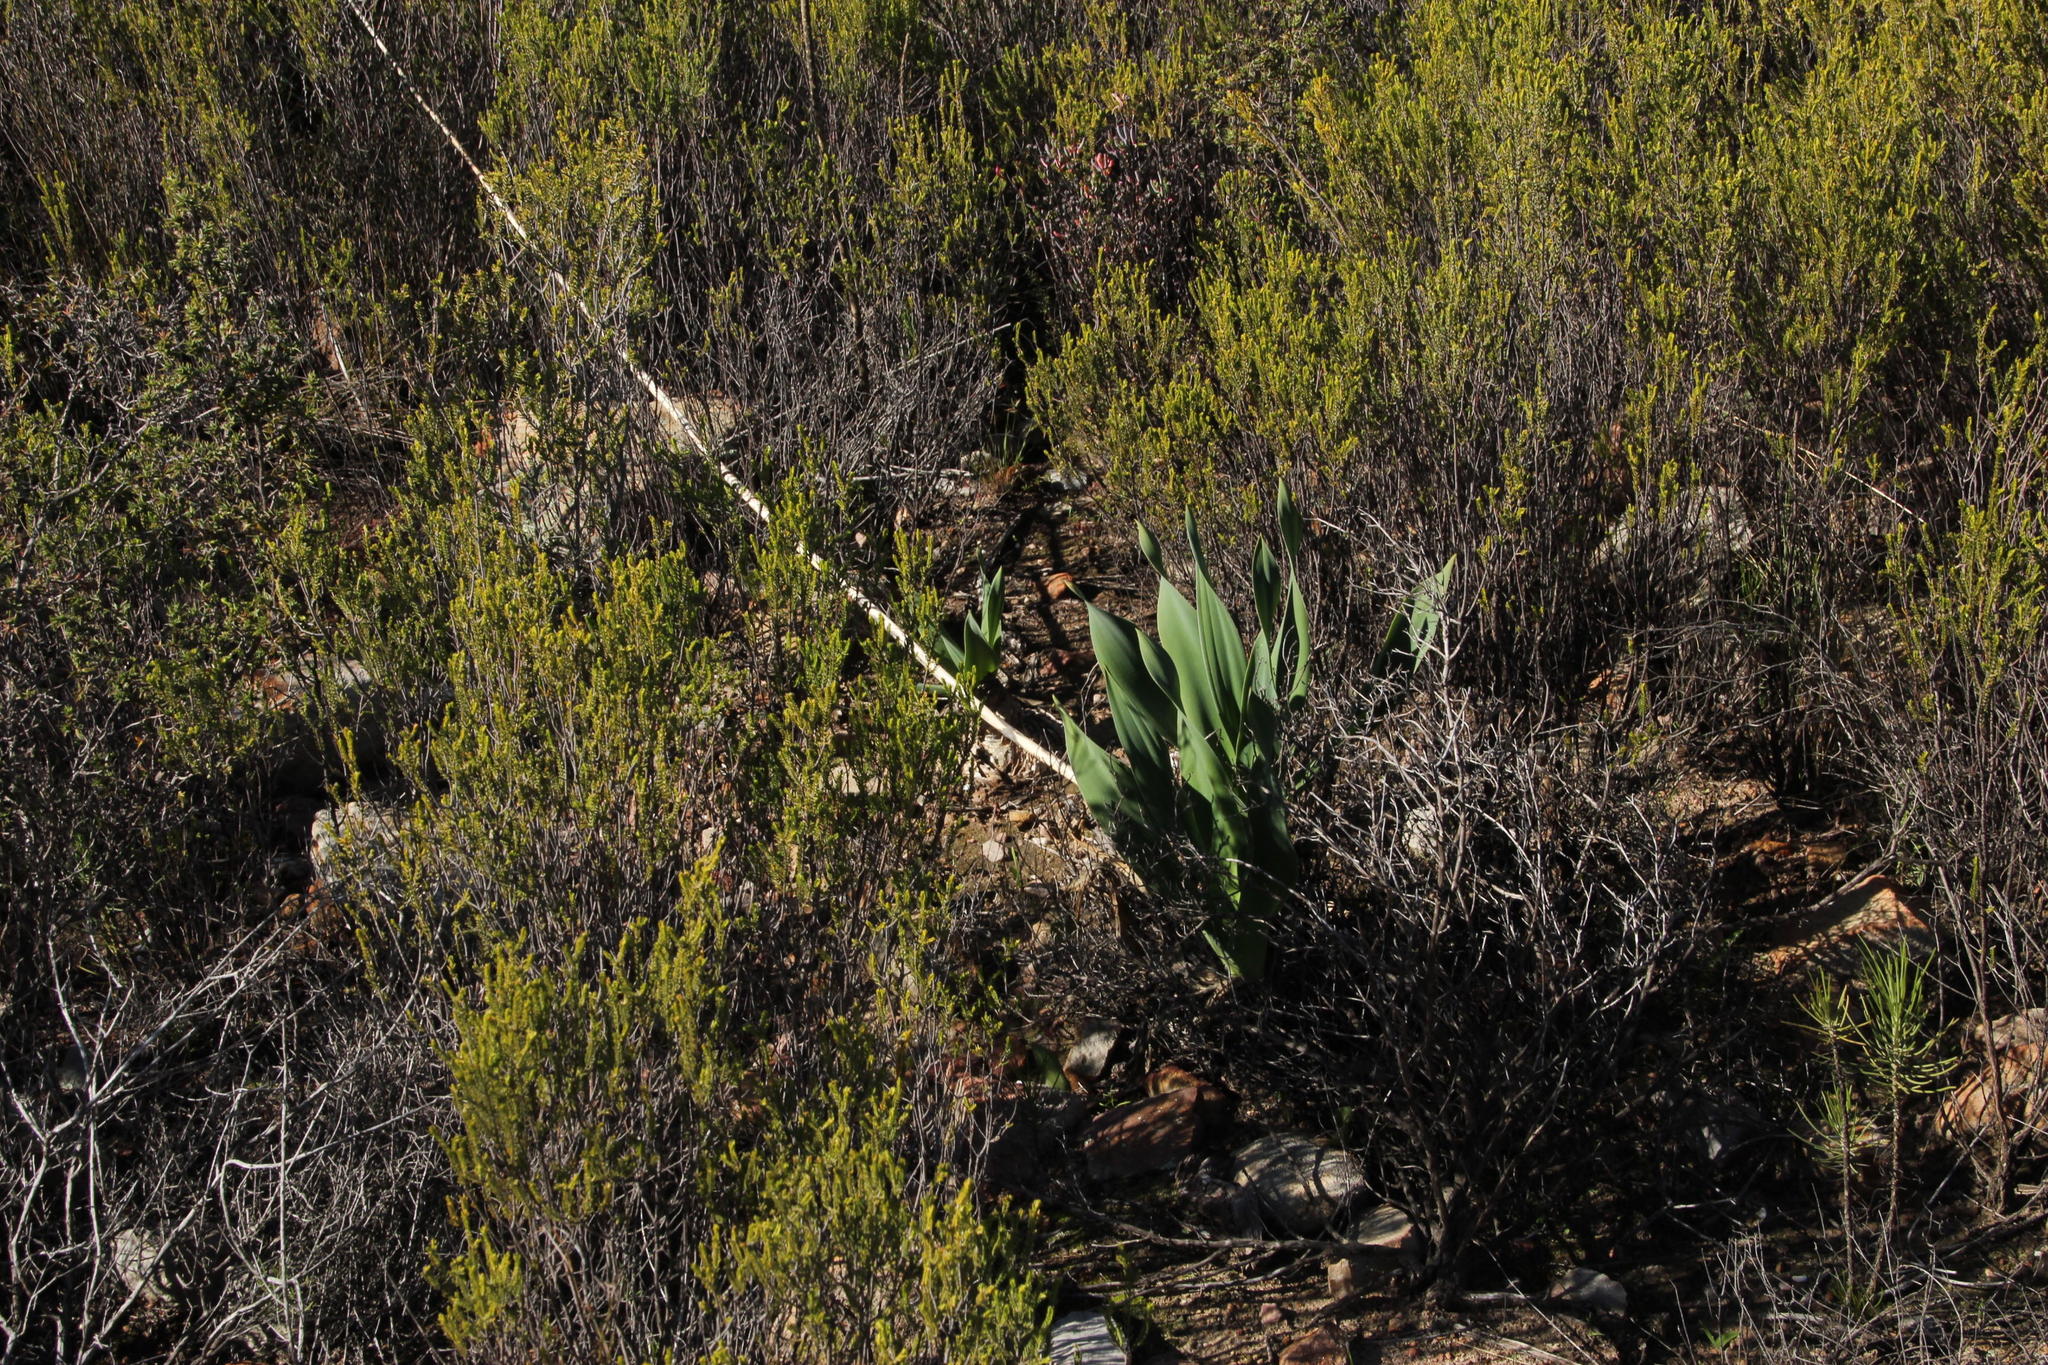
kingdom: Plantae
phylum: Tracheophyta
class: Liliopsida
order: Asparagales
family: Asparagaceae
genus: Drimia
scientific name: Drimia capensis
